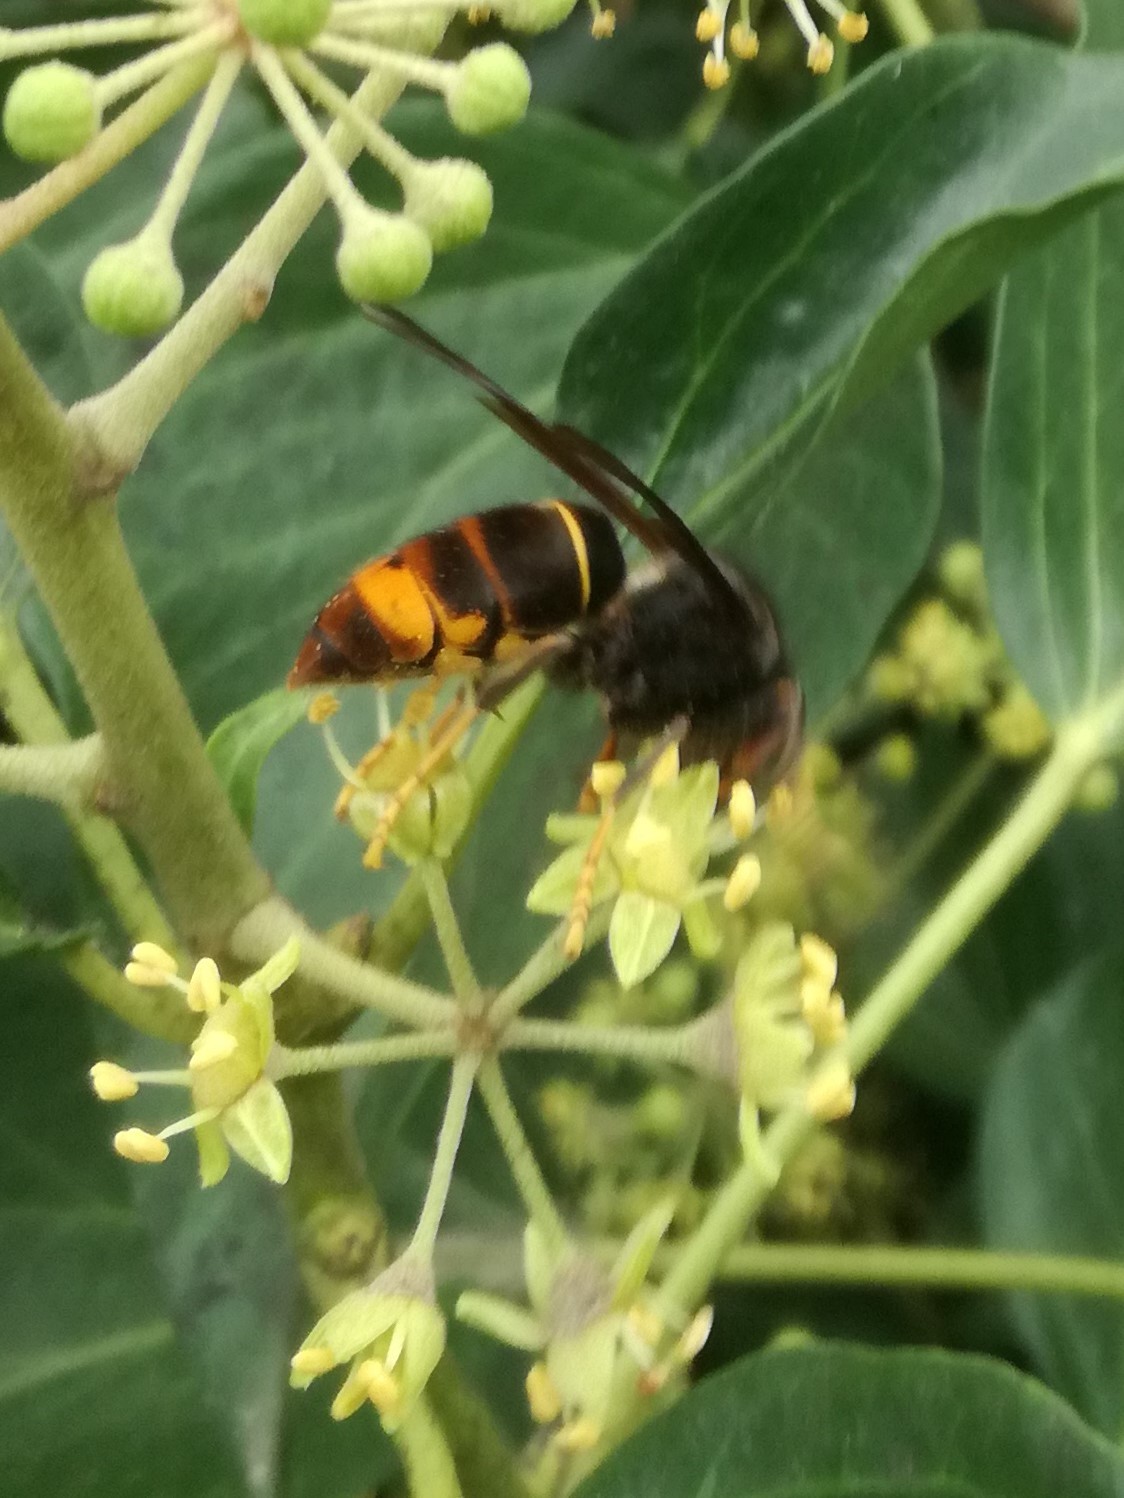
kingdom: Animalia
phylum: Arthropoda
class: Insecta
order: Hymenoptera
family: Vespidae
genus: Vespa
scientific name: Vespa velutina
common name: Asian hornet
